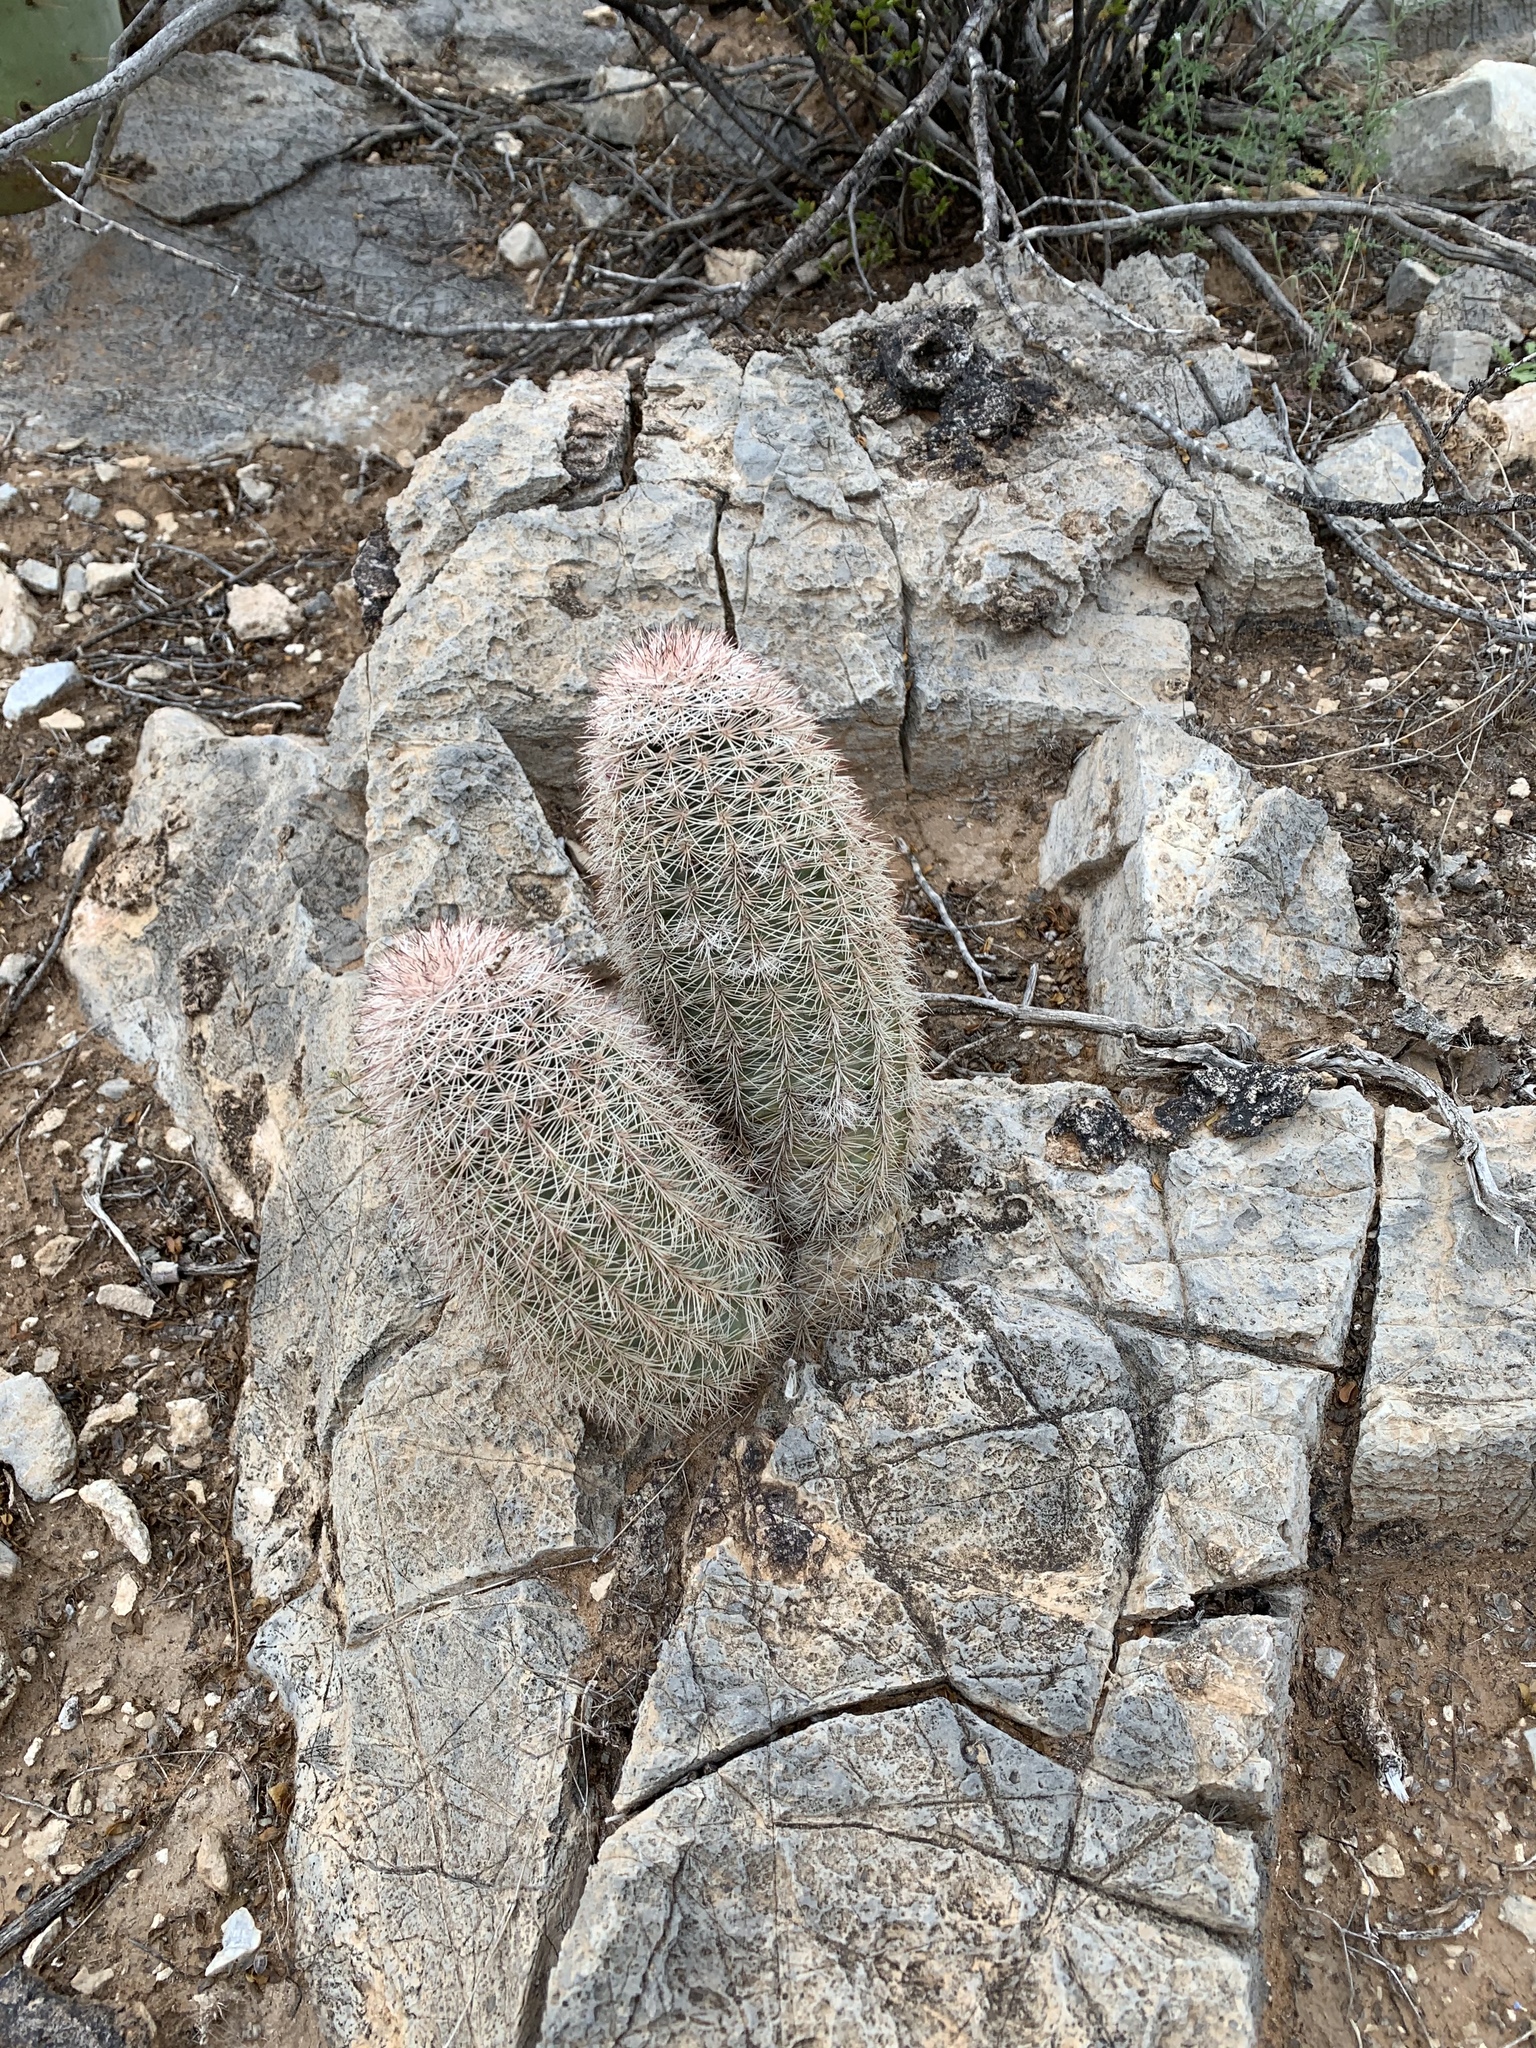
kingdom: Plantae
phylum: Tracheophyta
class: Magnoliopsida
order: Caryophyllales
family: Cactaceae
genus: Echinocereus
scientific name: Echinocereus dasyacanthus
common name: Spiny hedgehog cactus
